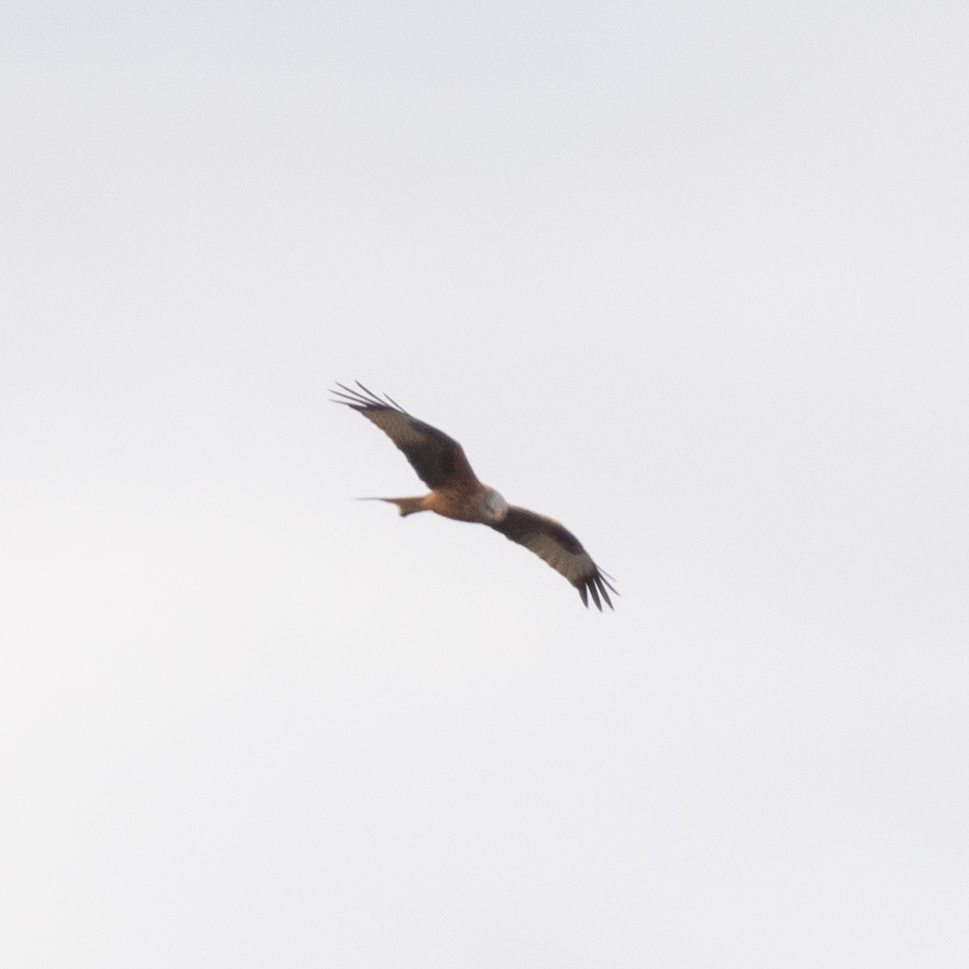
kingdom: Animalia
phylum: Chordata
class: Aves
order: Accipitriformes
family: Accipitridae
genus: Milvus
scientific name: Milvus milvus
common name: Red kite
